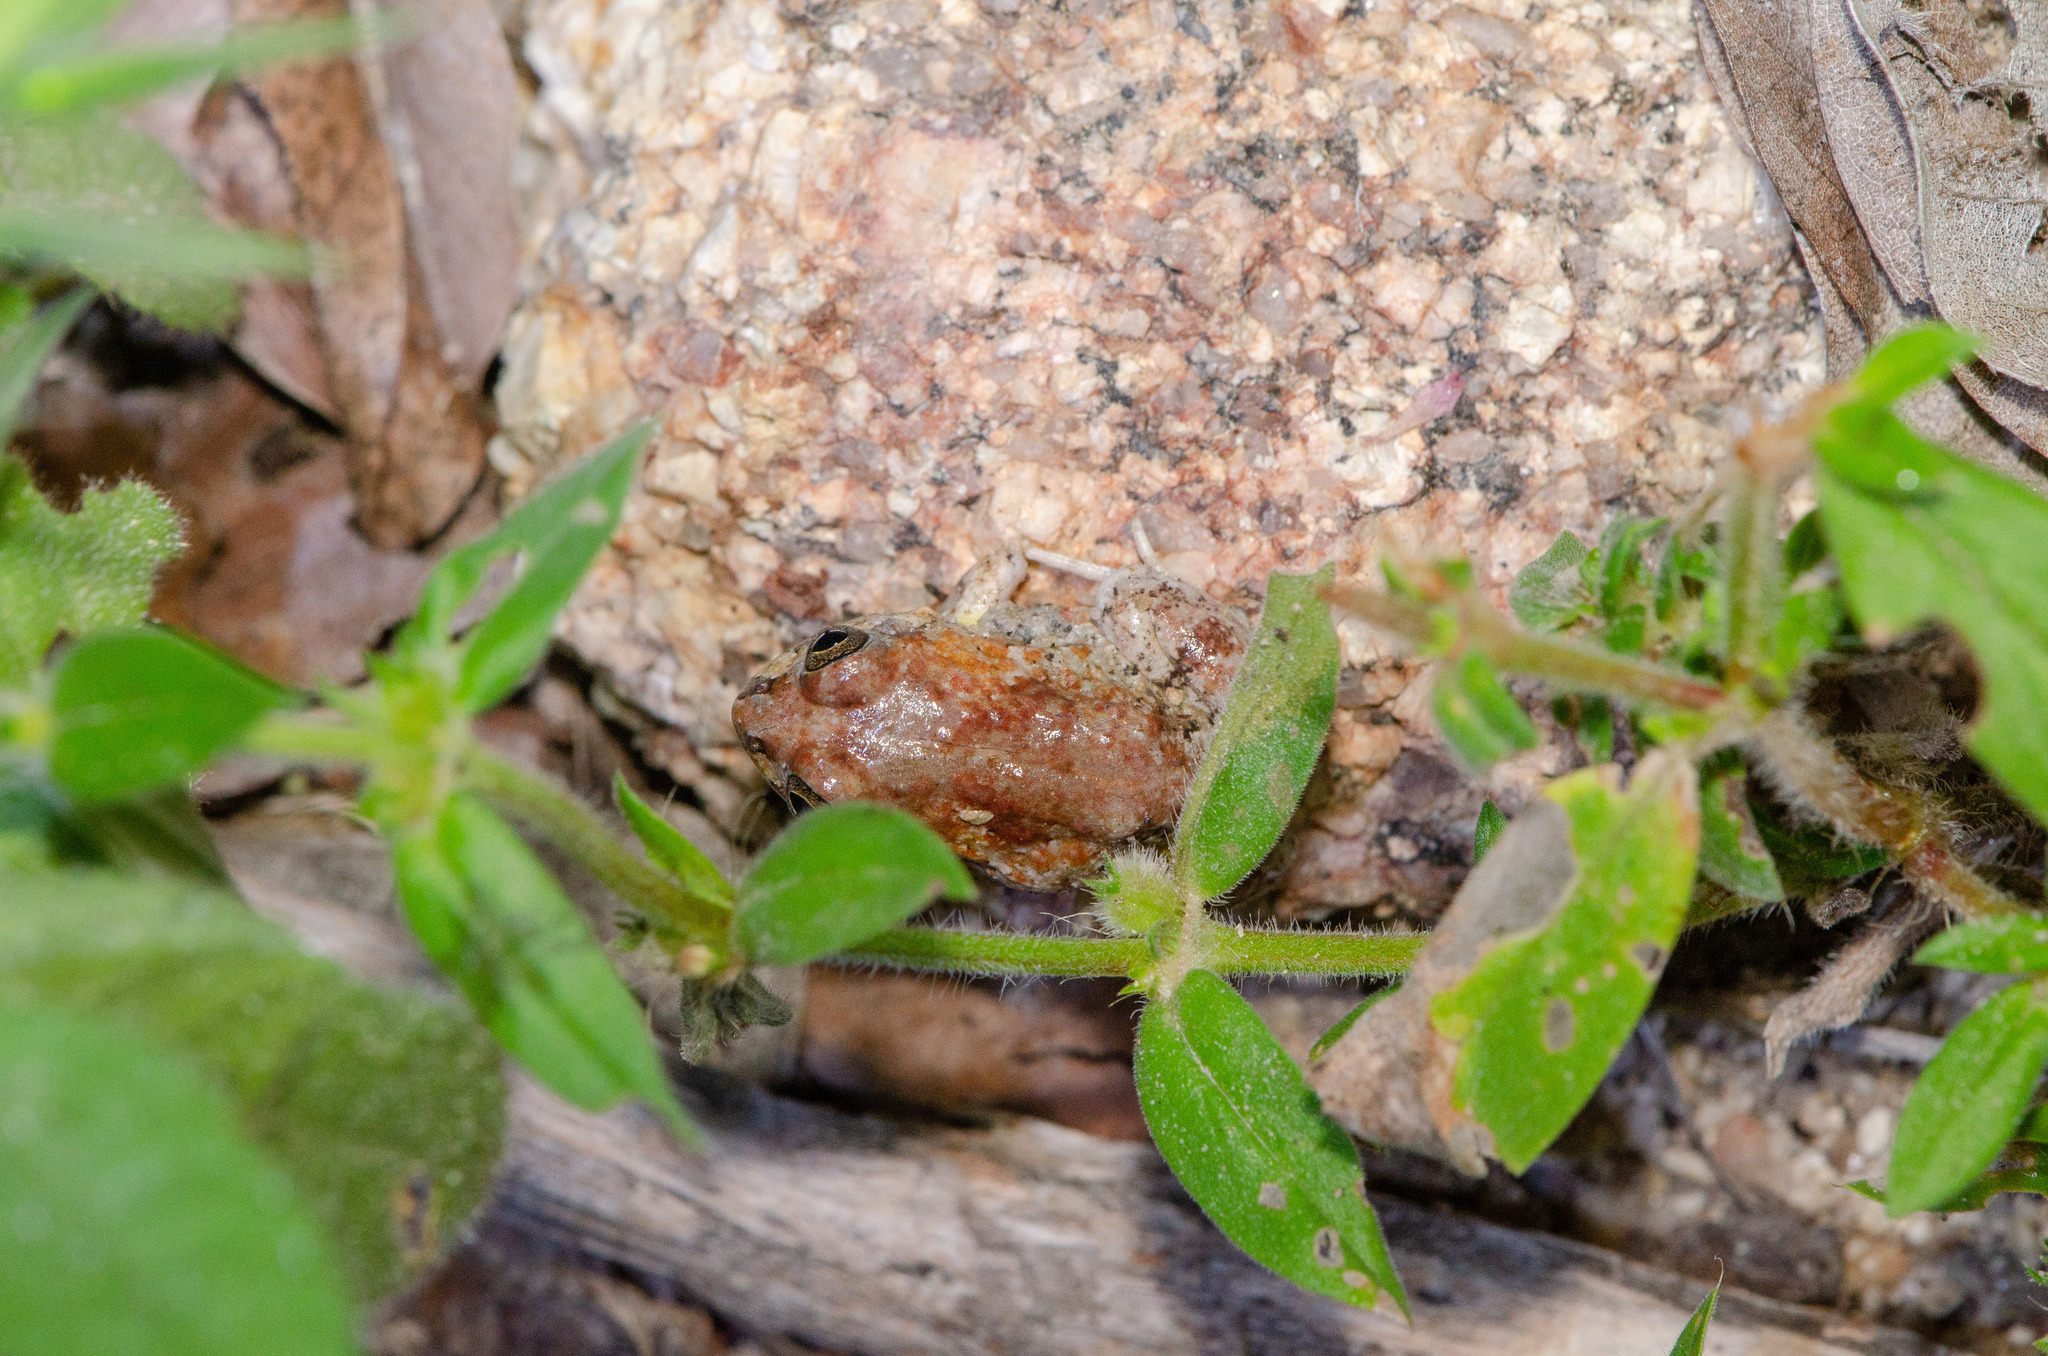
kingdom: Animalia
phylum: Chordata
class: Amphibia
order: Anura
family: Leptodactylidae
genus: Pleurodema
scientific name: Pleurodema diplolister
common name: Peters' four-eyed frog
